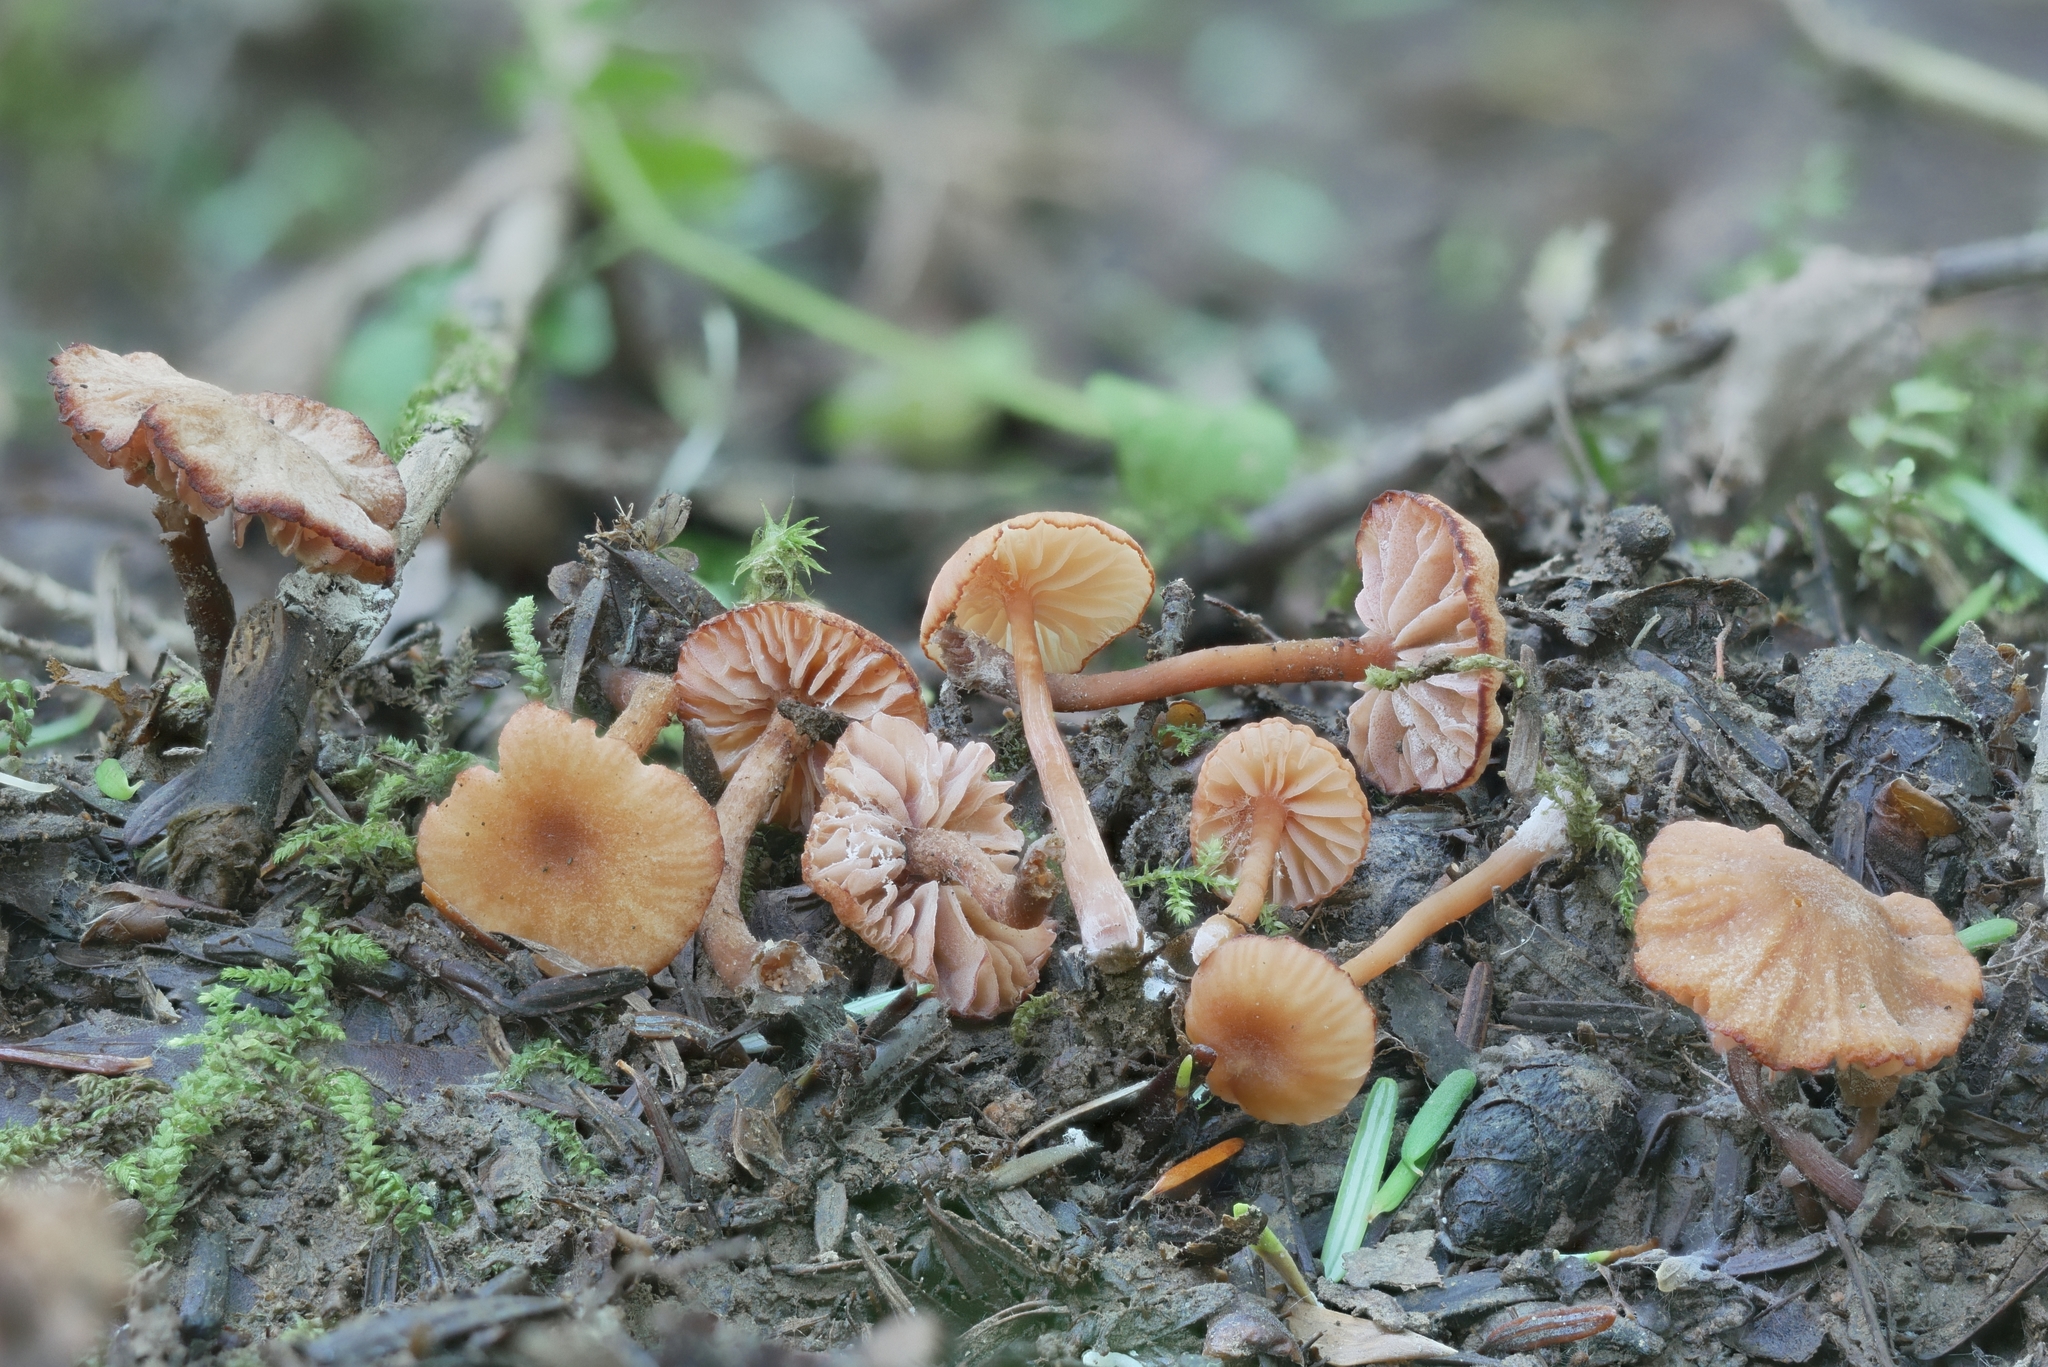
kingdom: Fungi
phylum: Basidiomycota
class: Agaricomycetes
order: Agaricales
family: Hydnangiaceae
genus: Laccaria
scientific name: Laccaria ohiensis
